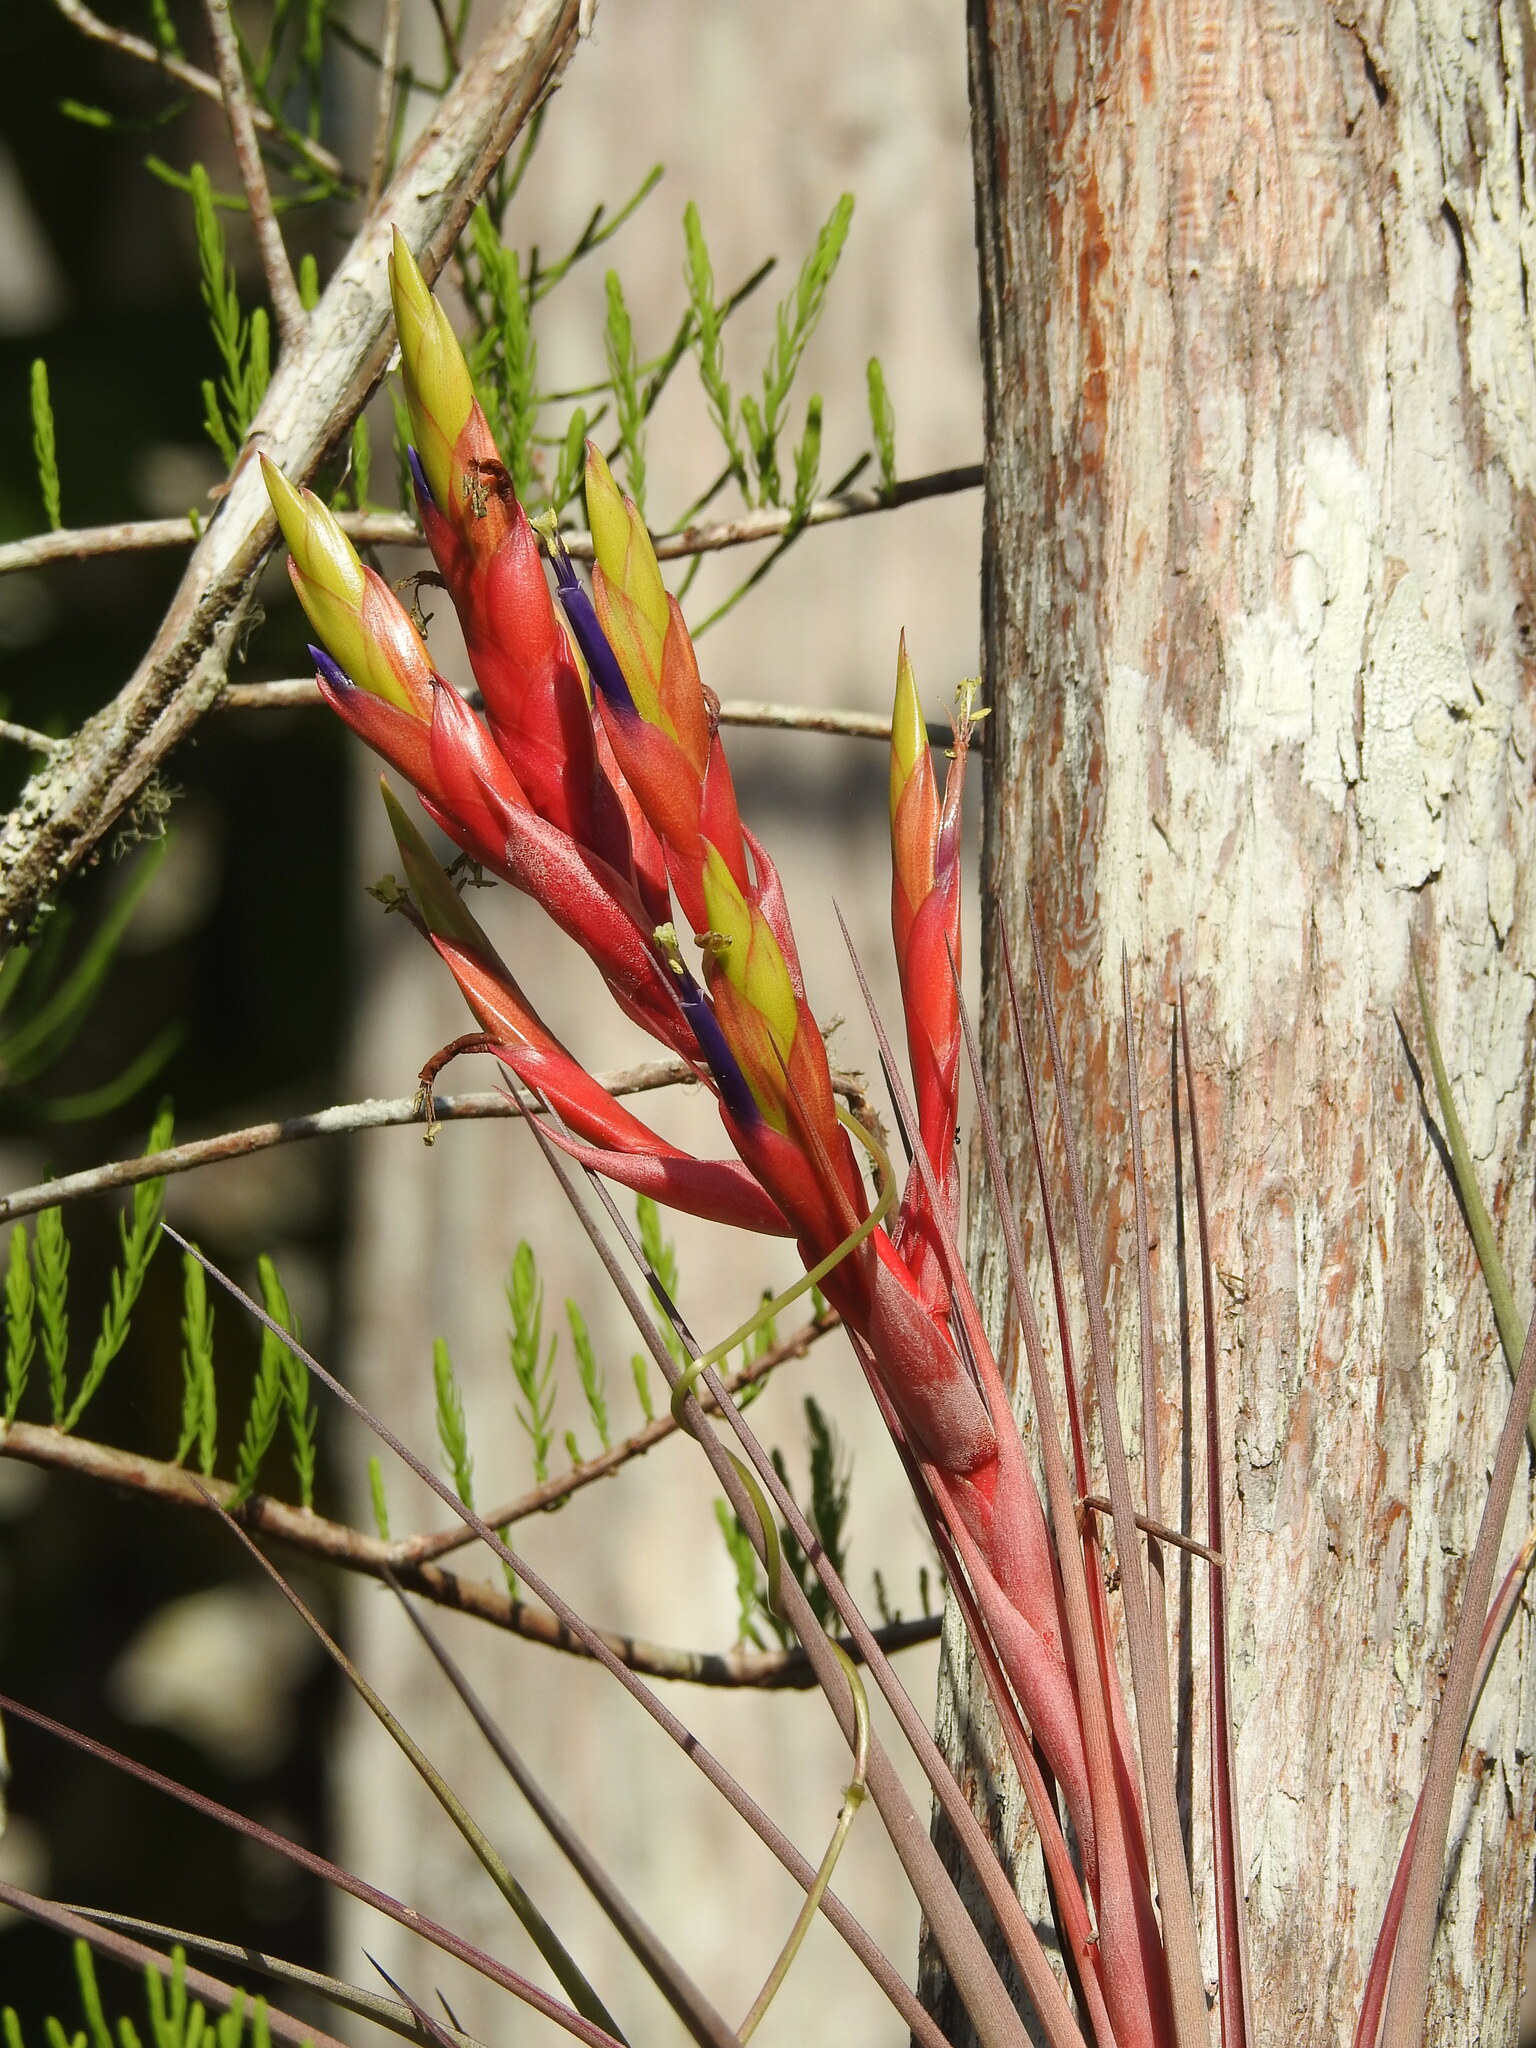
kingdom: Plantae
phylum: Tracheophyta
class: Liliopsida
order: Poales
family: Bromeliaceae
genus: Tillandsia
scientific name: Tillandsia fasciculata
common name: Giant airplant
